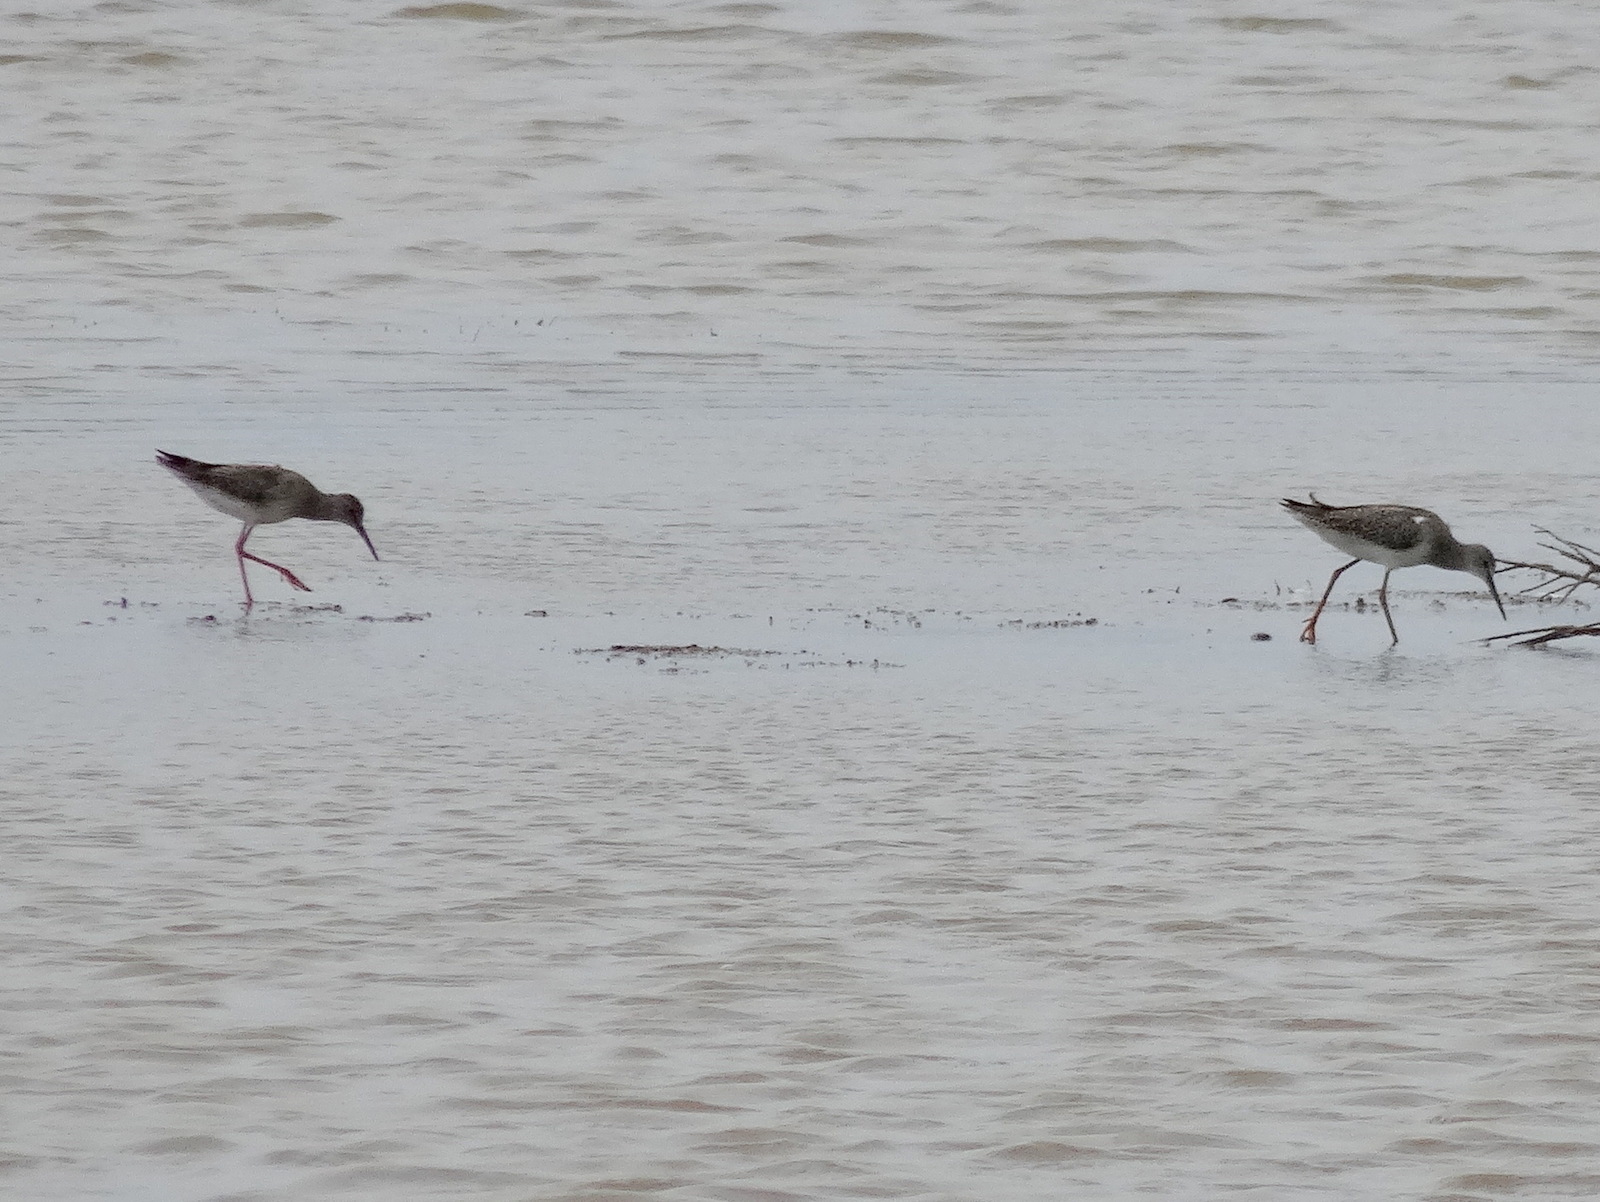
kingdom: Animalia
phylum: Chordata
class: Aves
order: Charadriiformes
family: Scolopacidae
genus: Tringa
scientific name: Tringa totanus
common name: Common redshank
